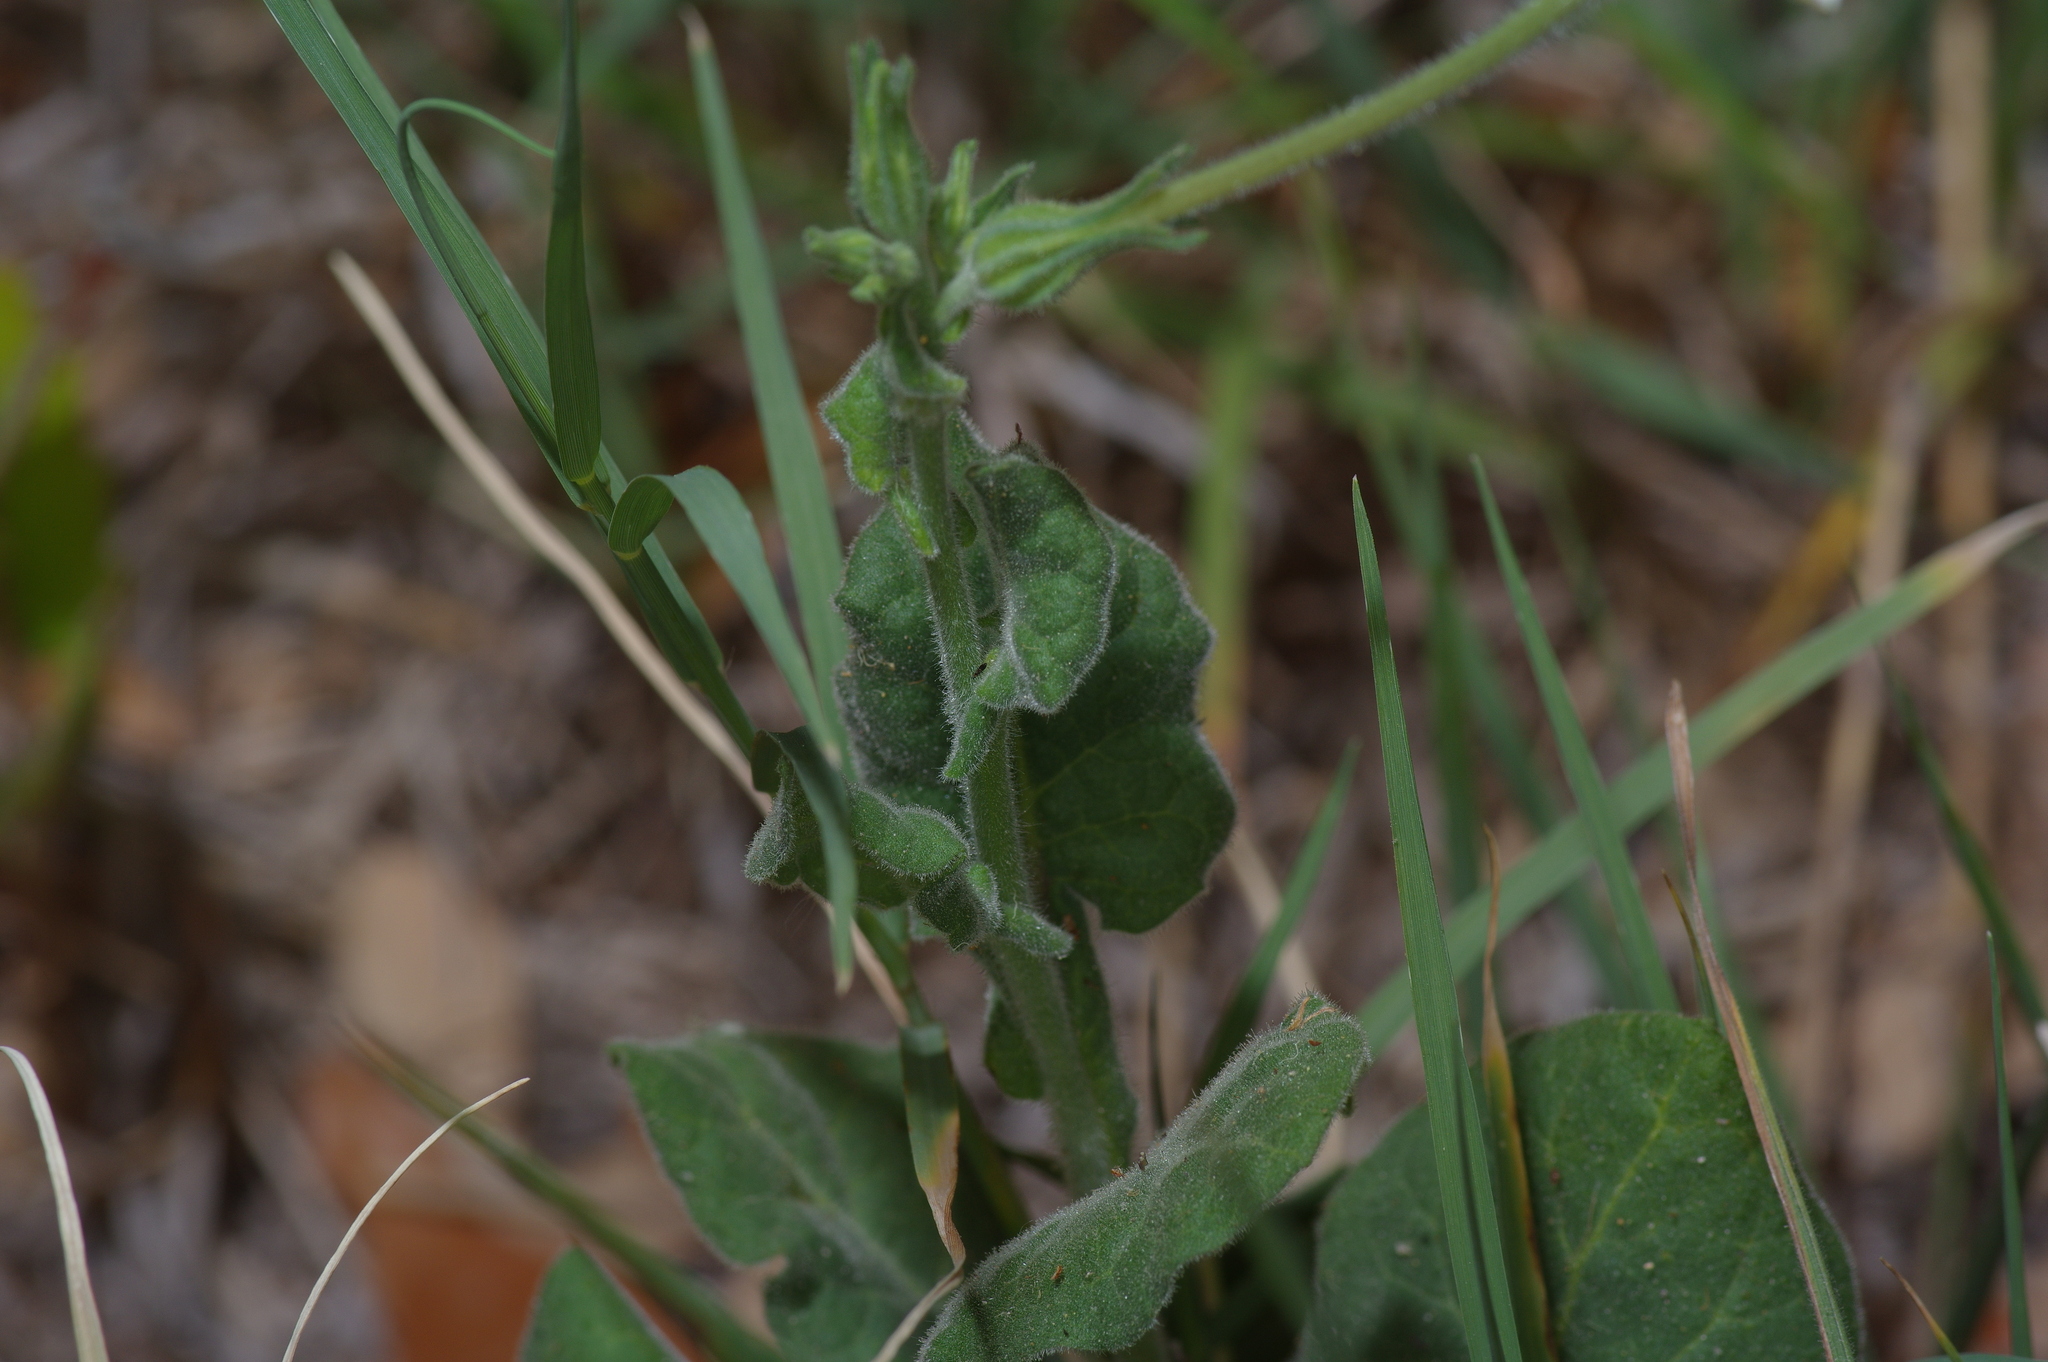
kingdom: Plantae
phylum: Tracheophyta
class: Magnoliopsida
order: Solanales
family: Solanaceae
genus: Nicotiana
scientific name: Nicotiana repanda
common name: Fiddle-leaf tobacco
